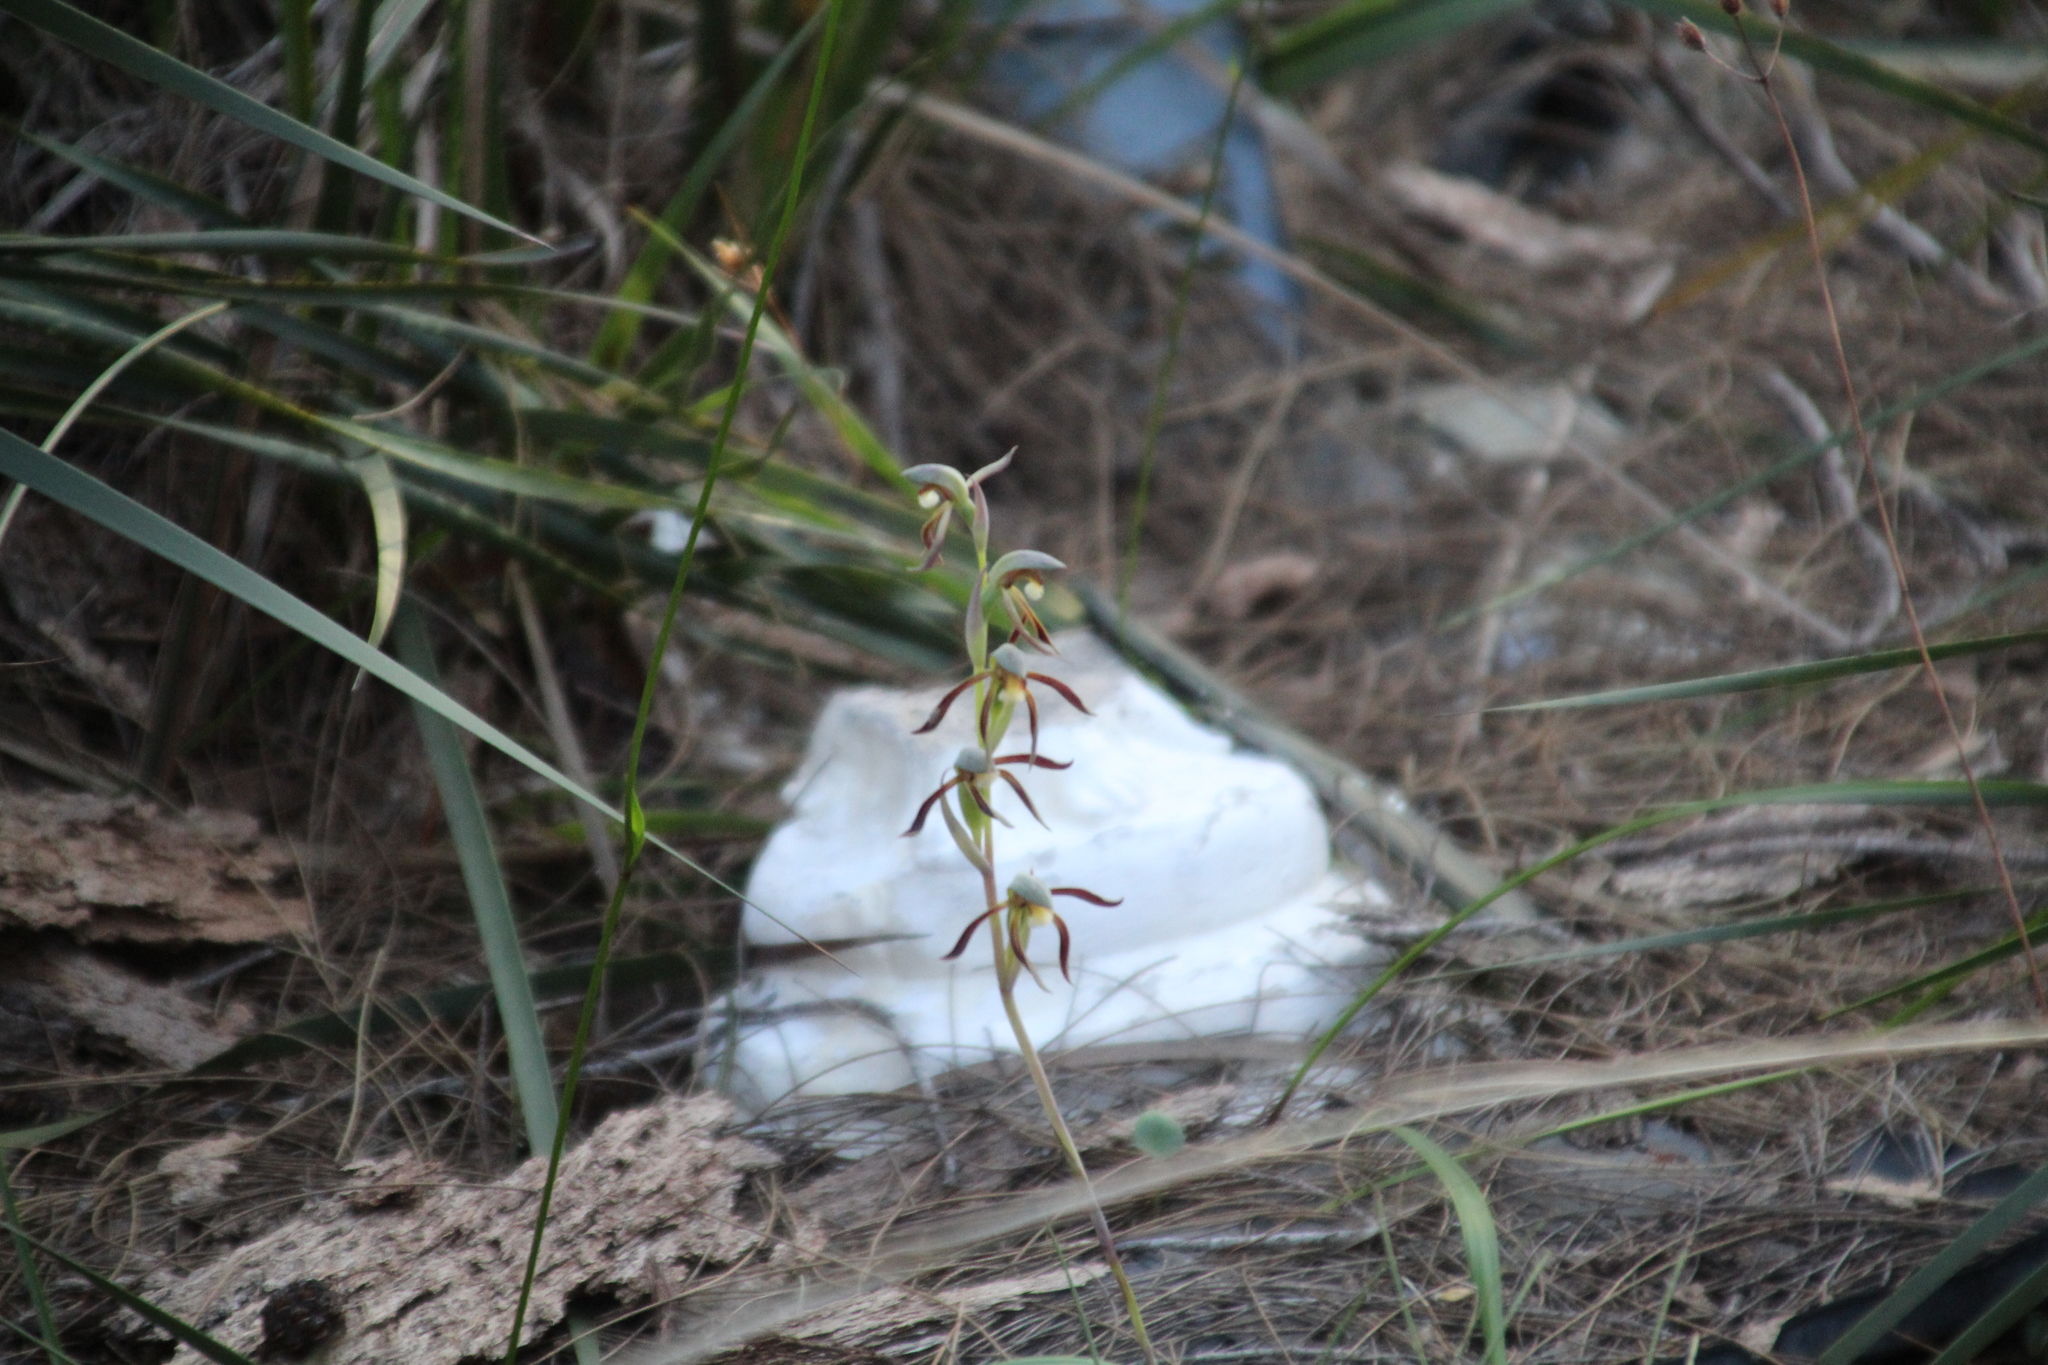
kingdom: Plantae
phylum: Tracheophyta
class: Liliopsida
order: Asparagales
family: Orchidaceae
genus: Lyperanthus
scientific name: Lyperanthus serratus
